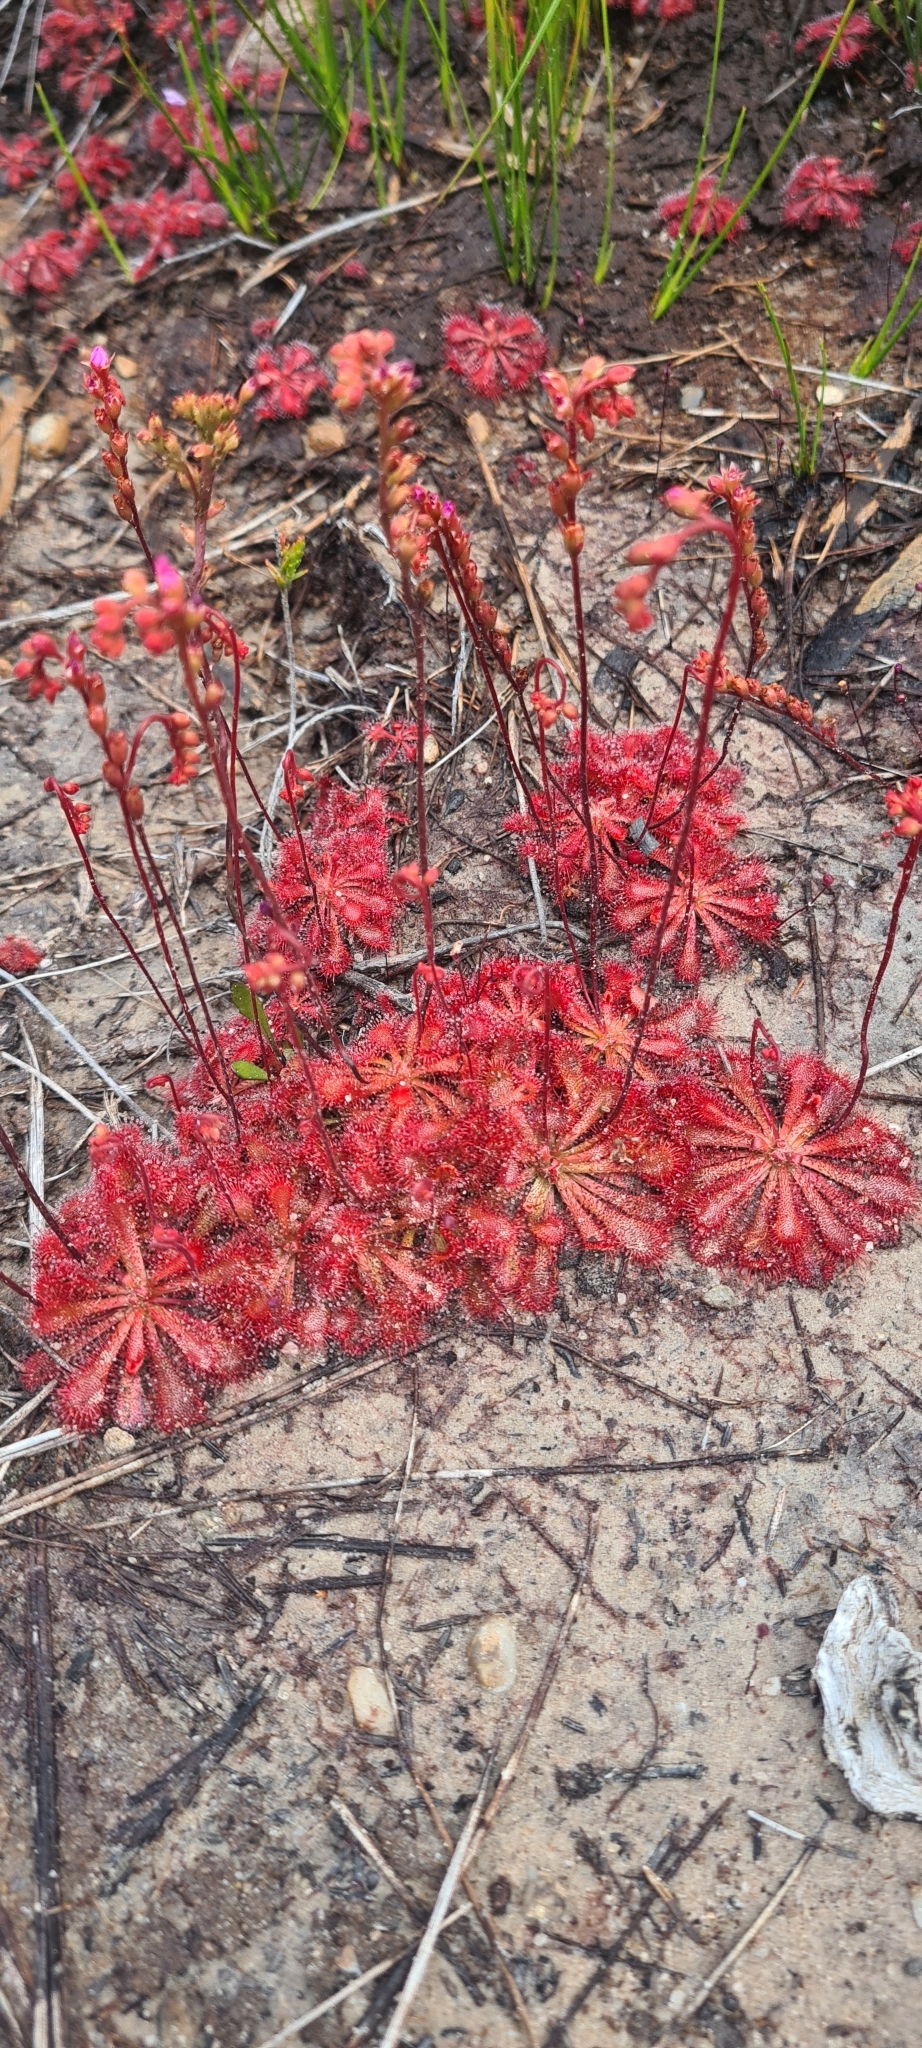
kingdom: Plantae
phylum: Tracheophyta
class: Magnoliopsida
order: Caryophyllales
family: Droseraceae
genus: Drosera
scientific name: Drosera spatulata
